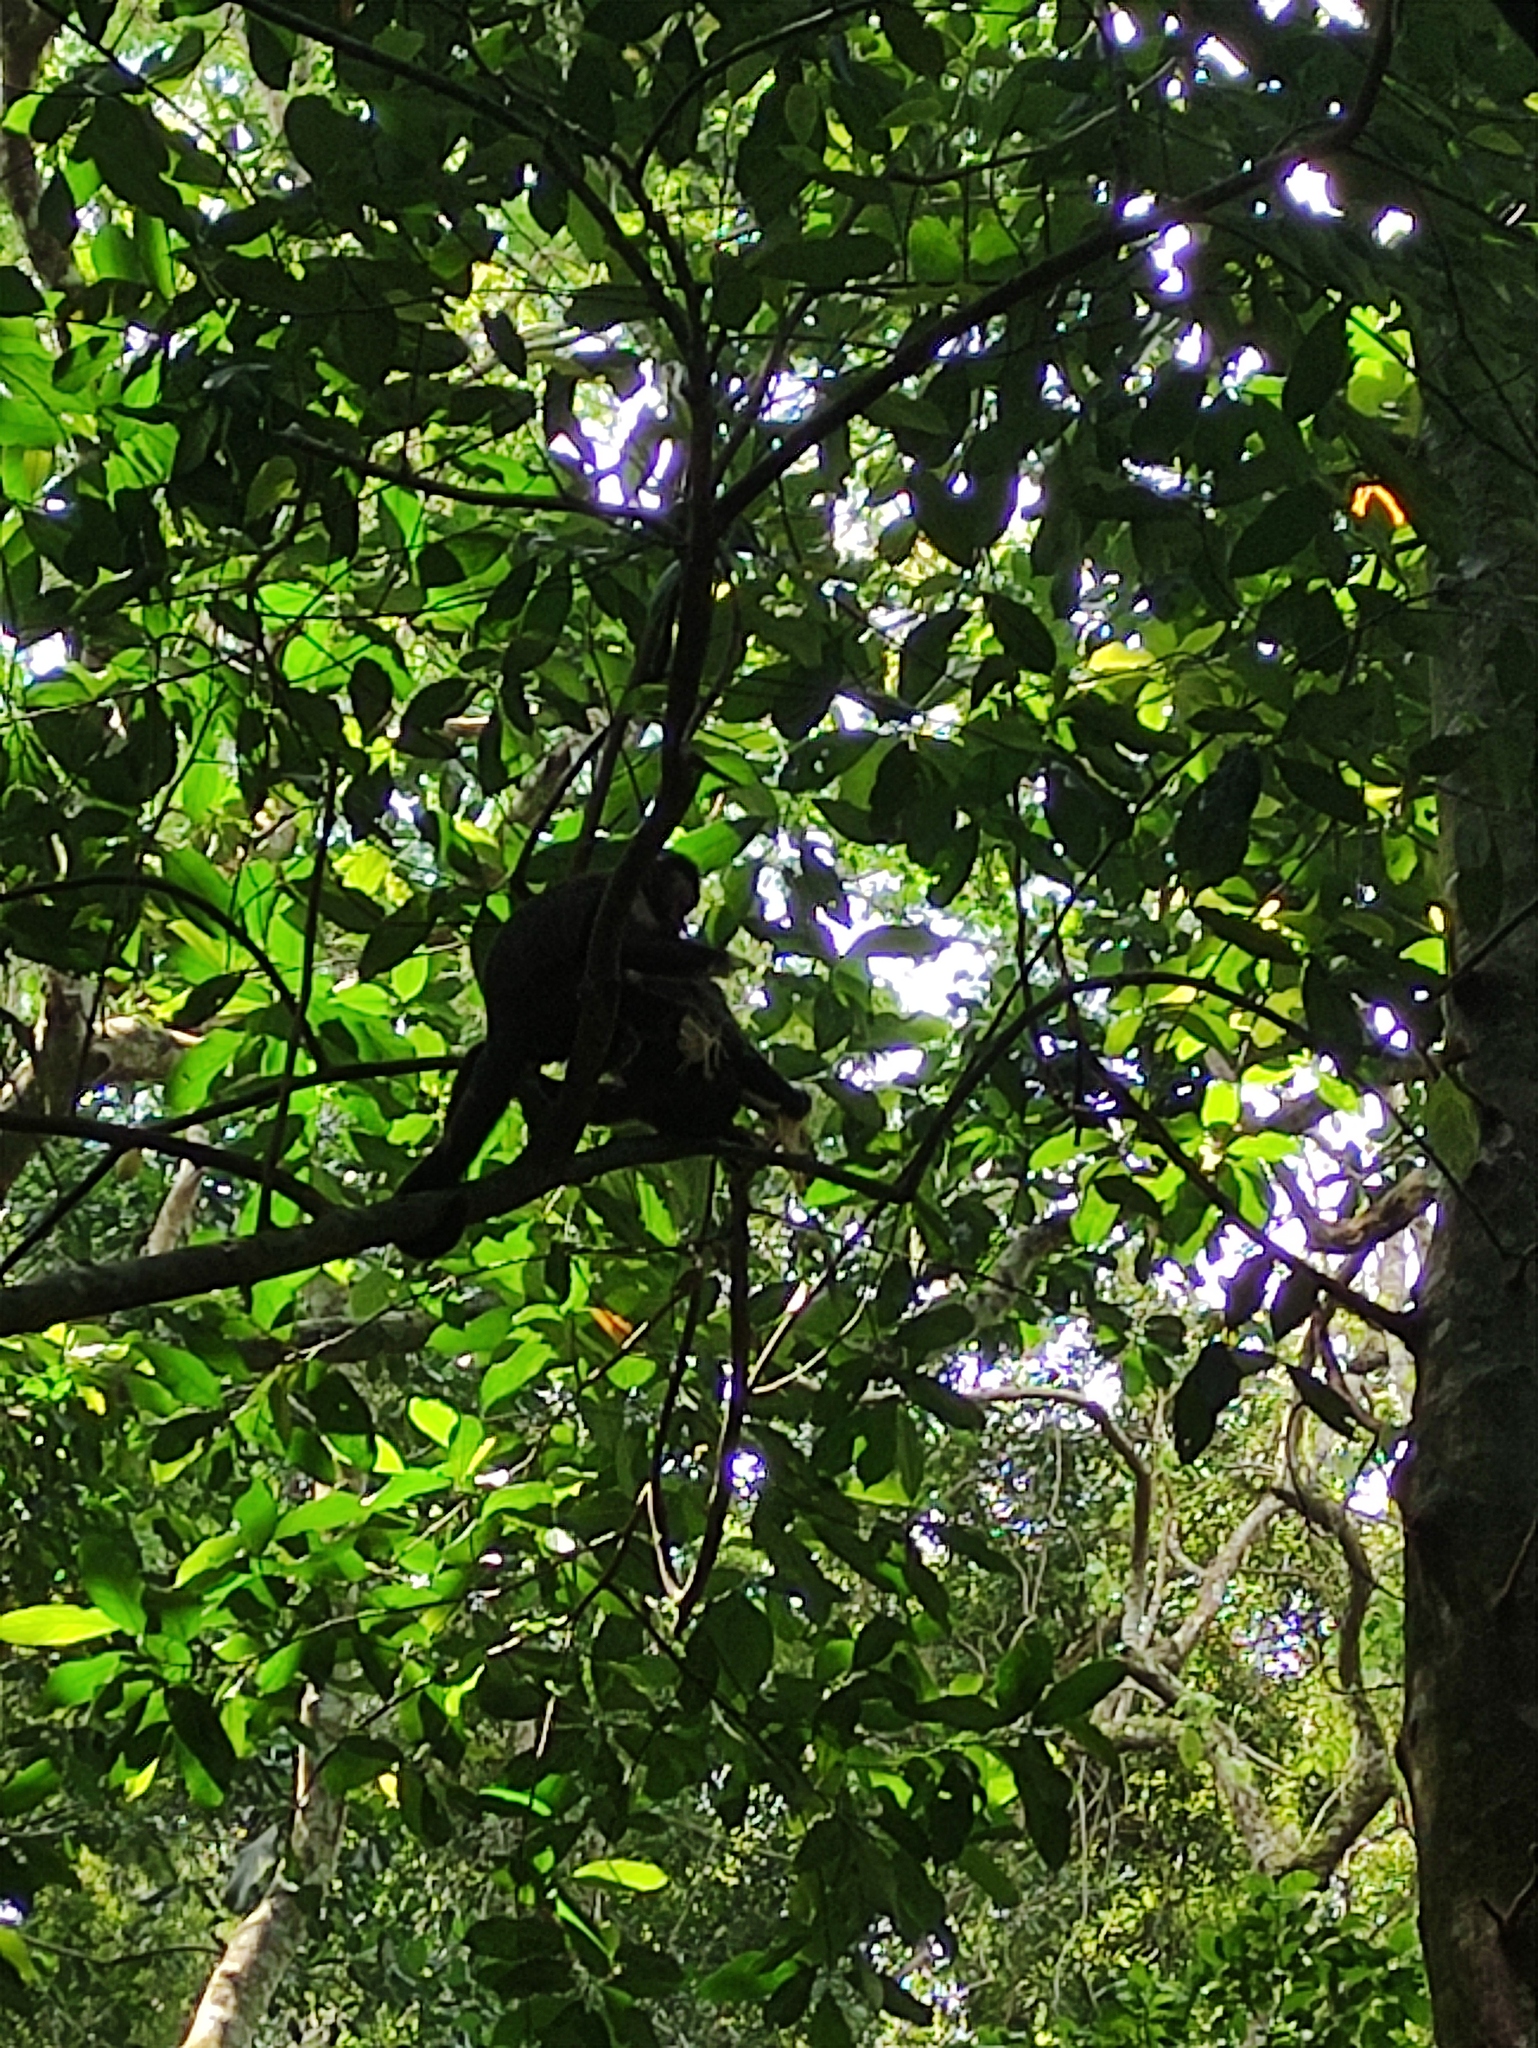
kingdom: Animalia
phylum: Chordata
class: Mammalia
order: Primates
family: Cebidae
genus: Sapajus
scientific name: Sapajus nigritus
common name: Black capuchin
